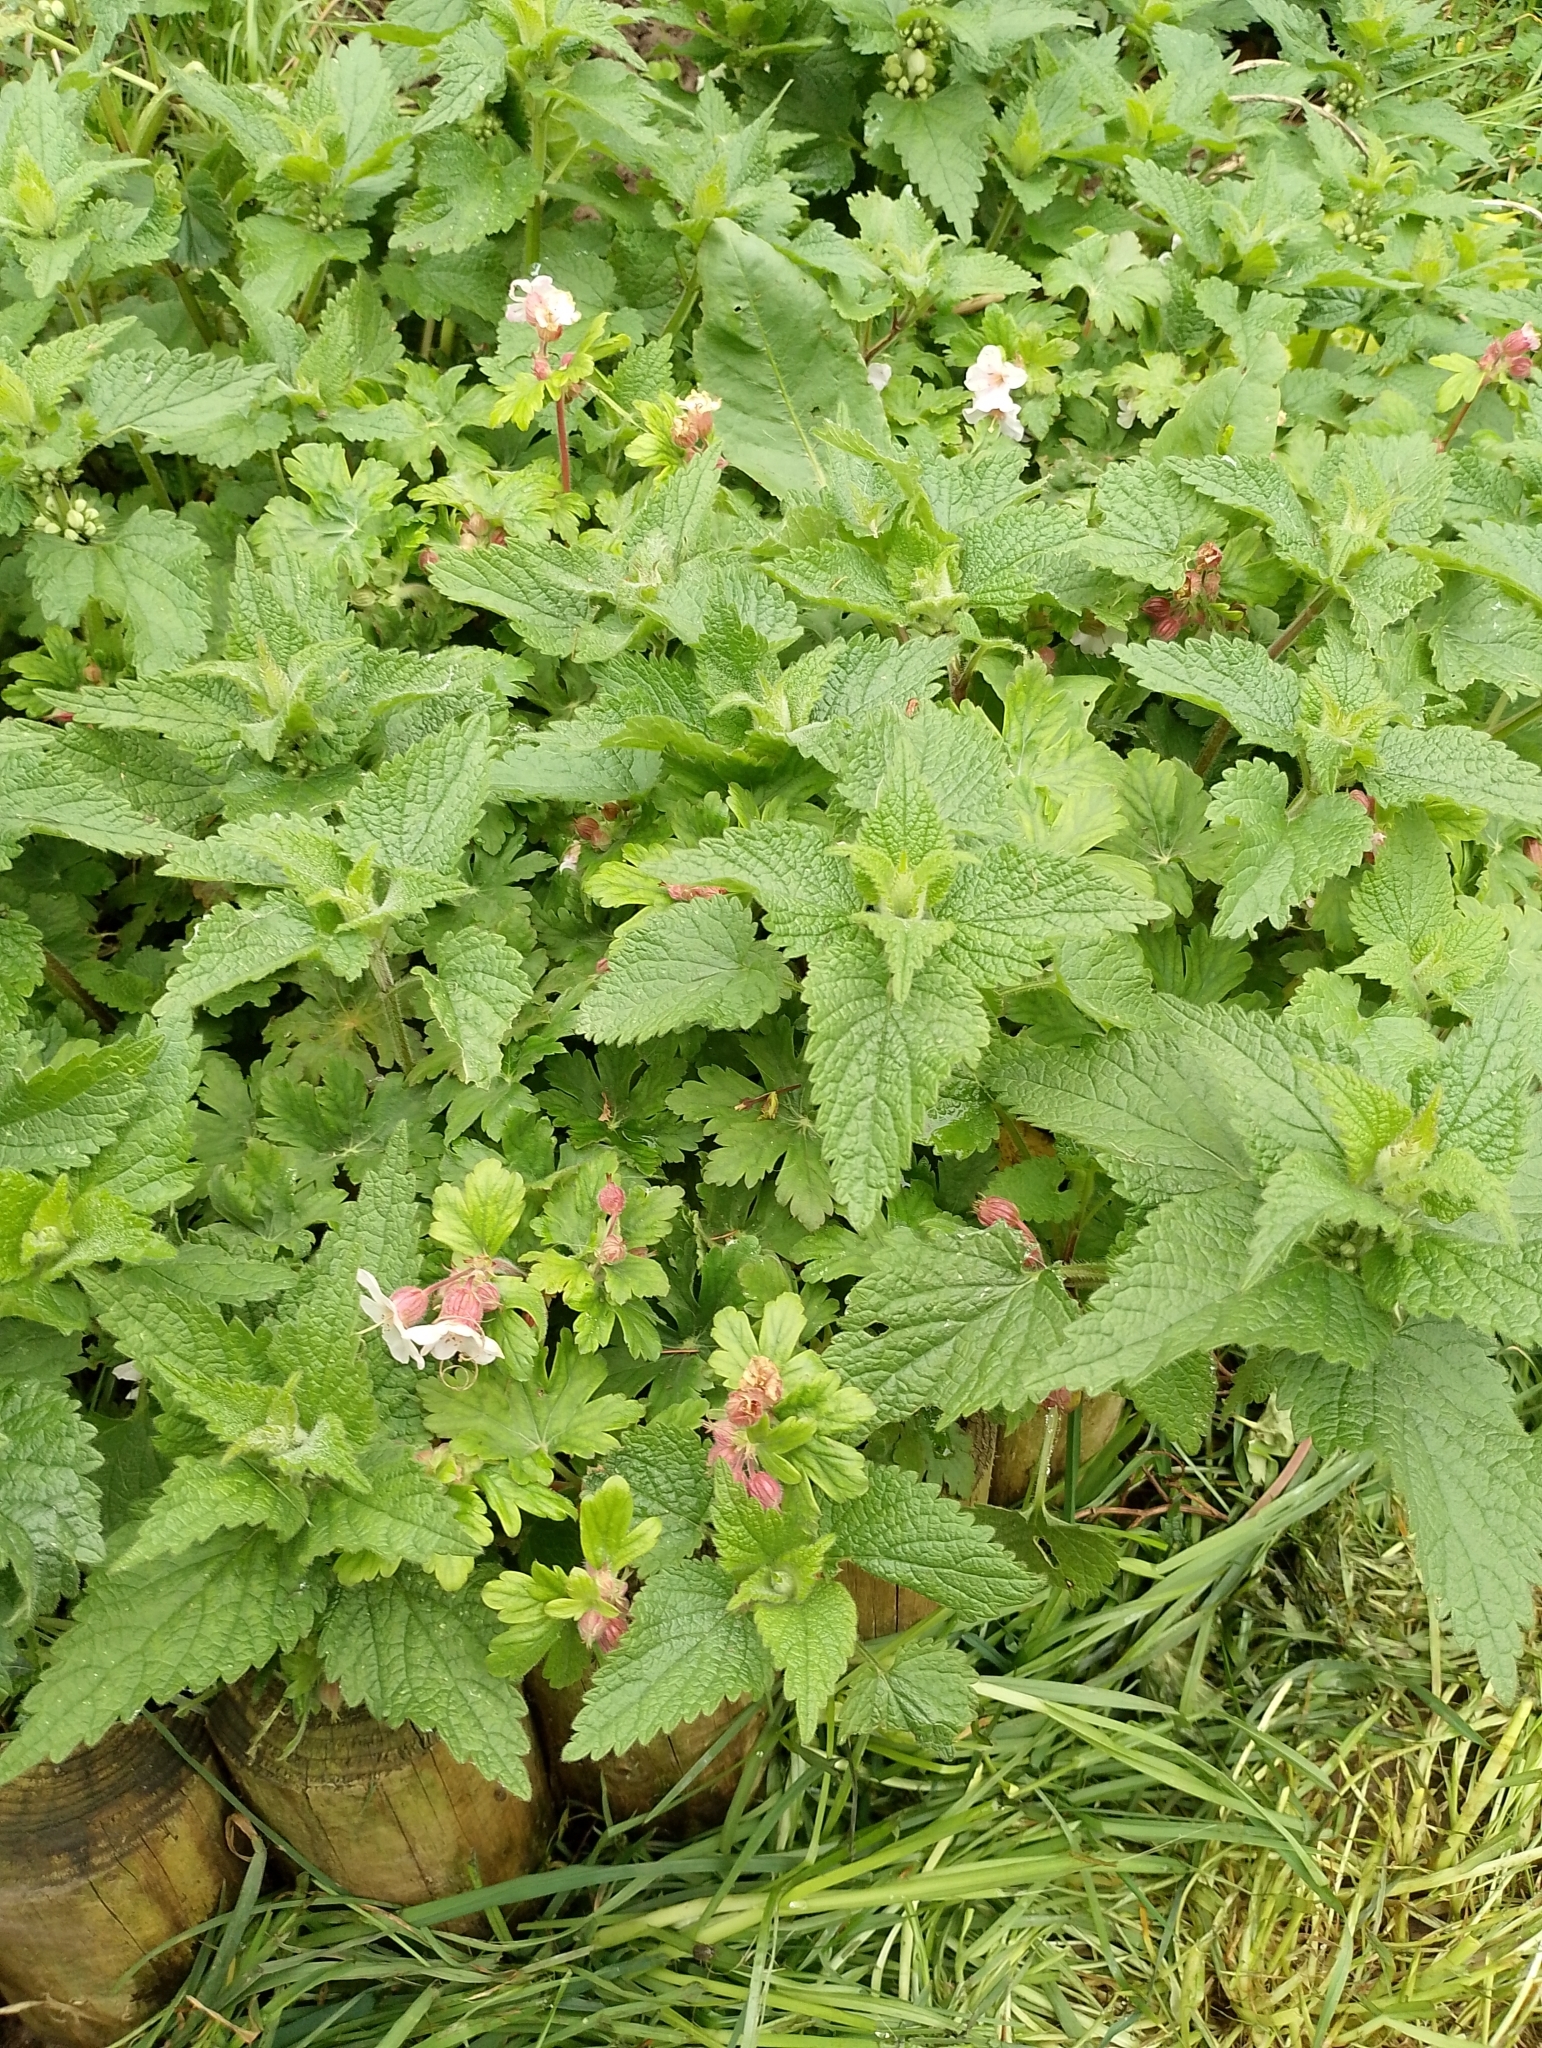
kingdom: Plantae
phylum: Tracheophyta
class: Magnoliopsida
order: Geraniales
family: Geraniaceae
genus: Geranium
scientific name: Geranium macrorrhizum
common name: Rock crane's-bill
